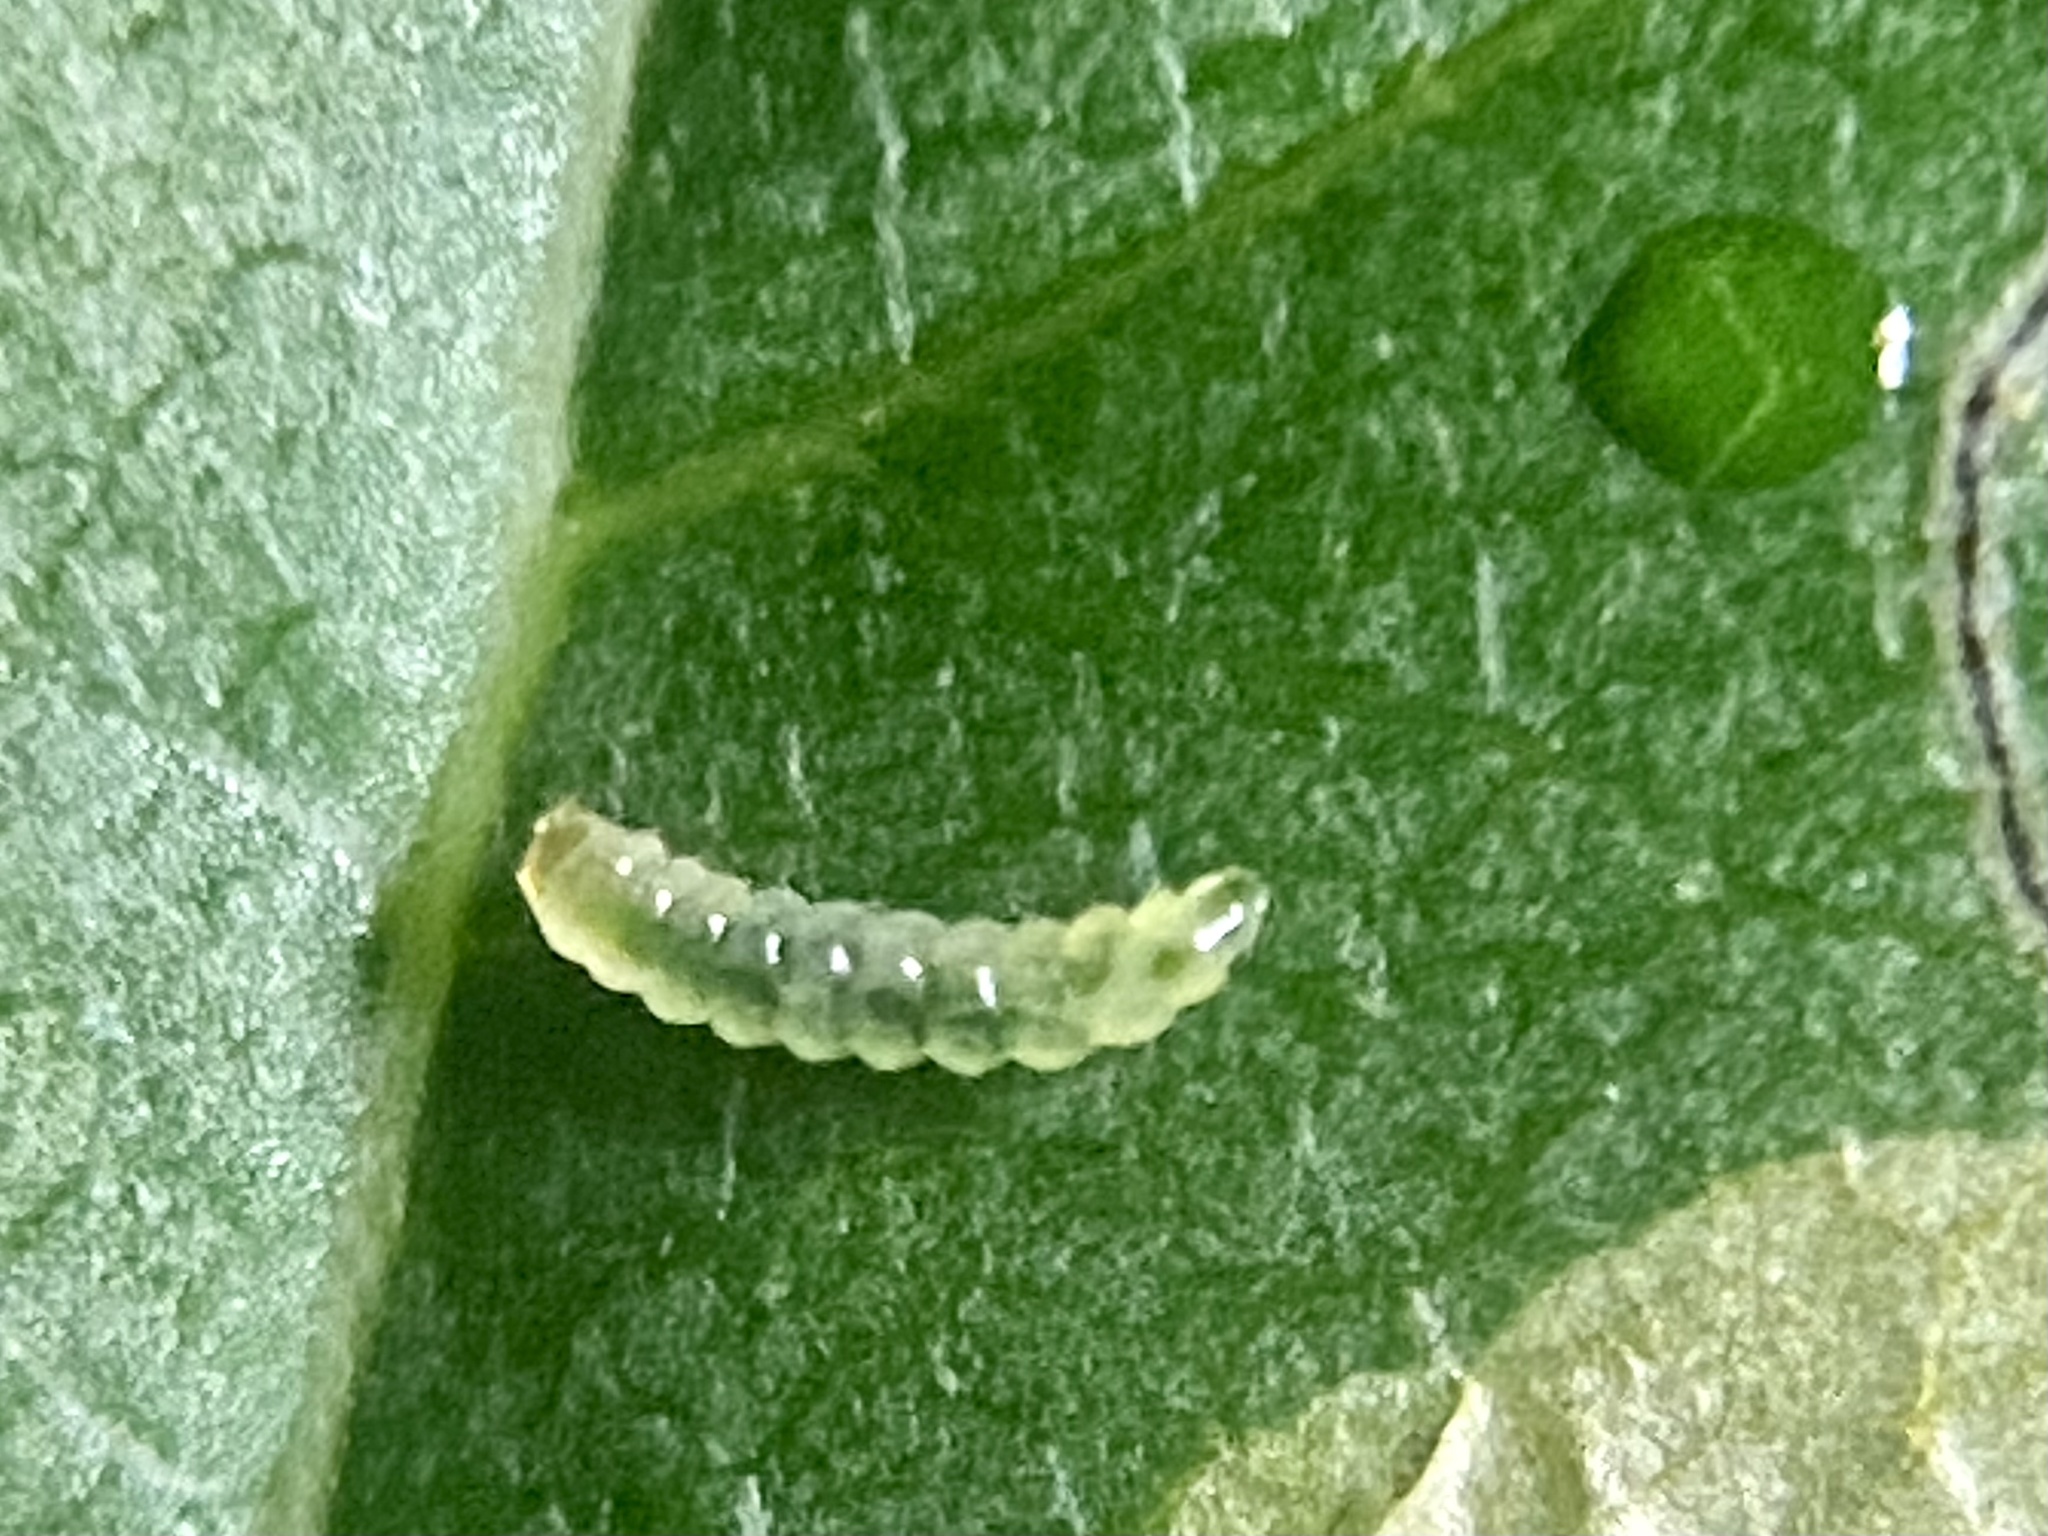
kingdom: Animalia
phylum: Arthropoda
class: Insecta
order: Lepidoptera
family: Nepticulidae
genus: Ectoedemia
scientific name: Ectoedemia nyssaefoliella
